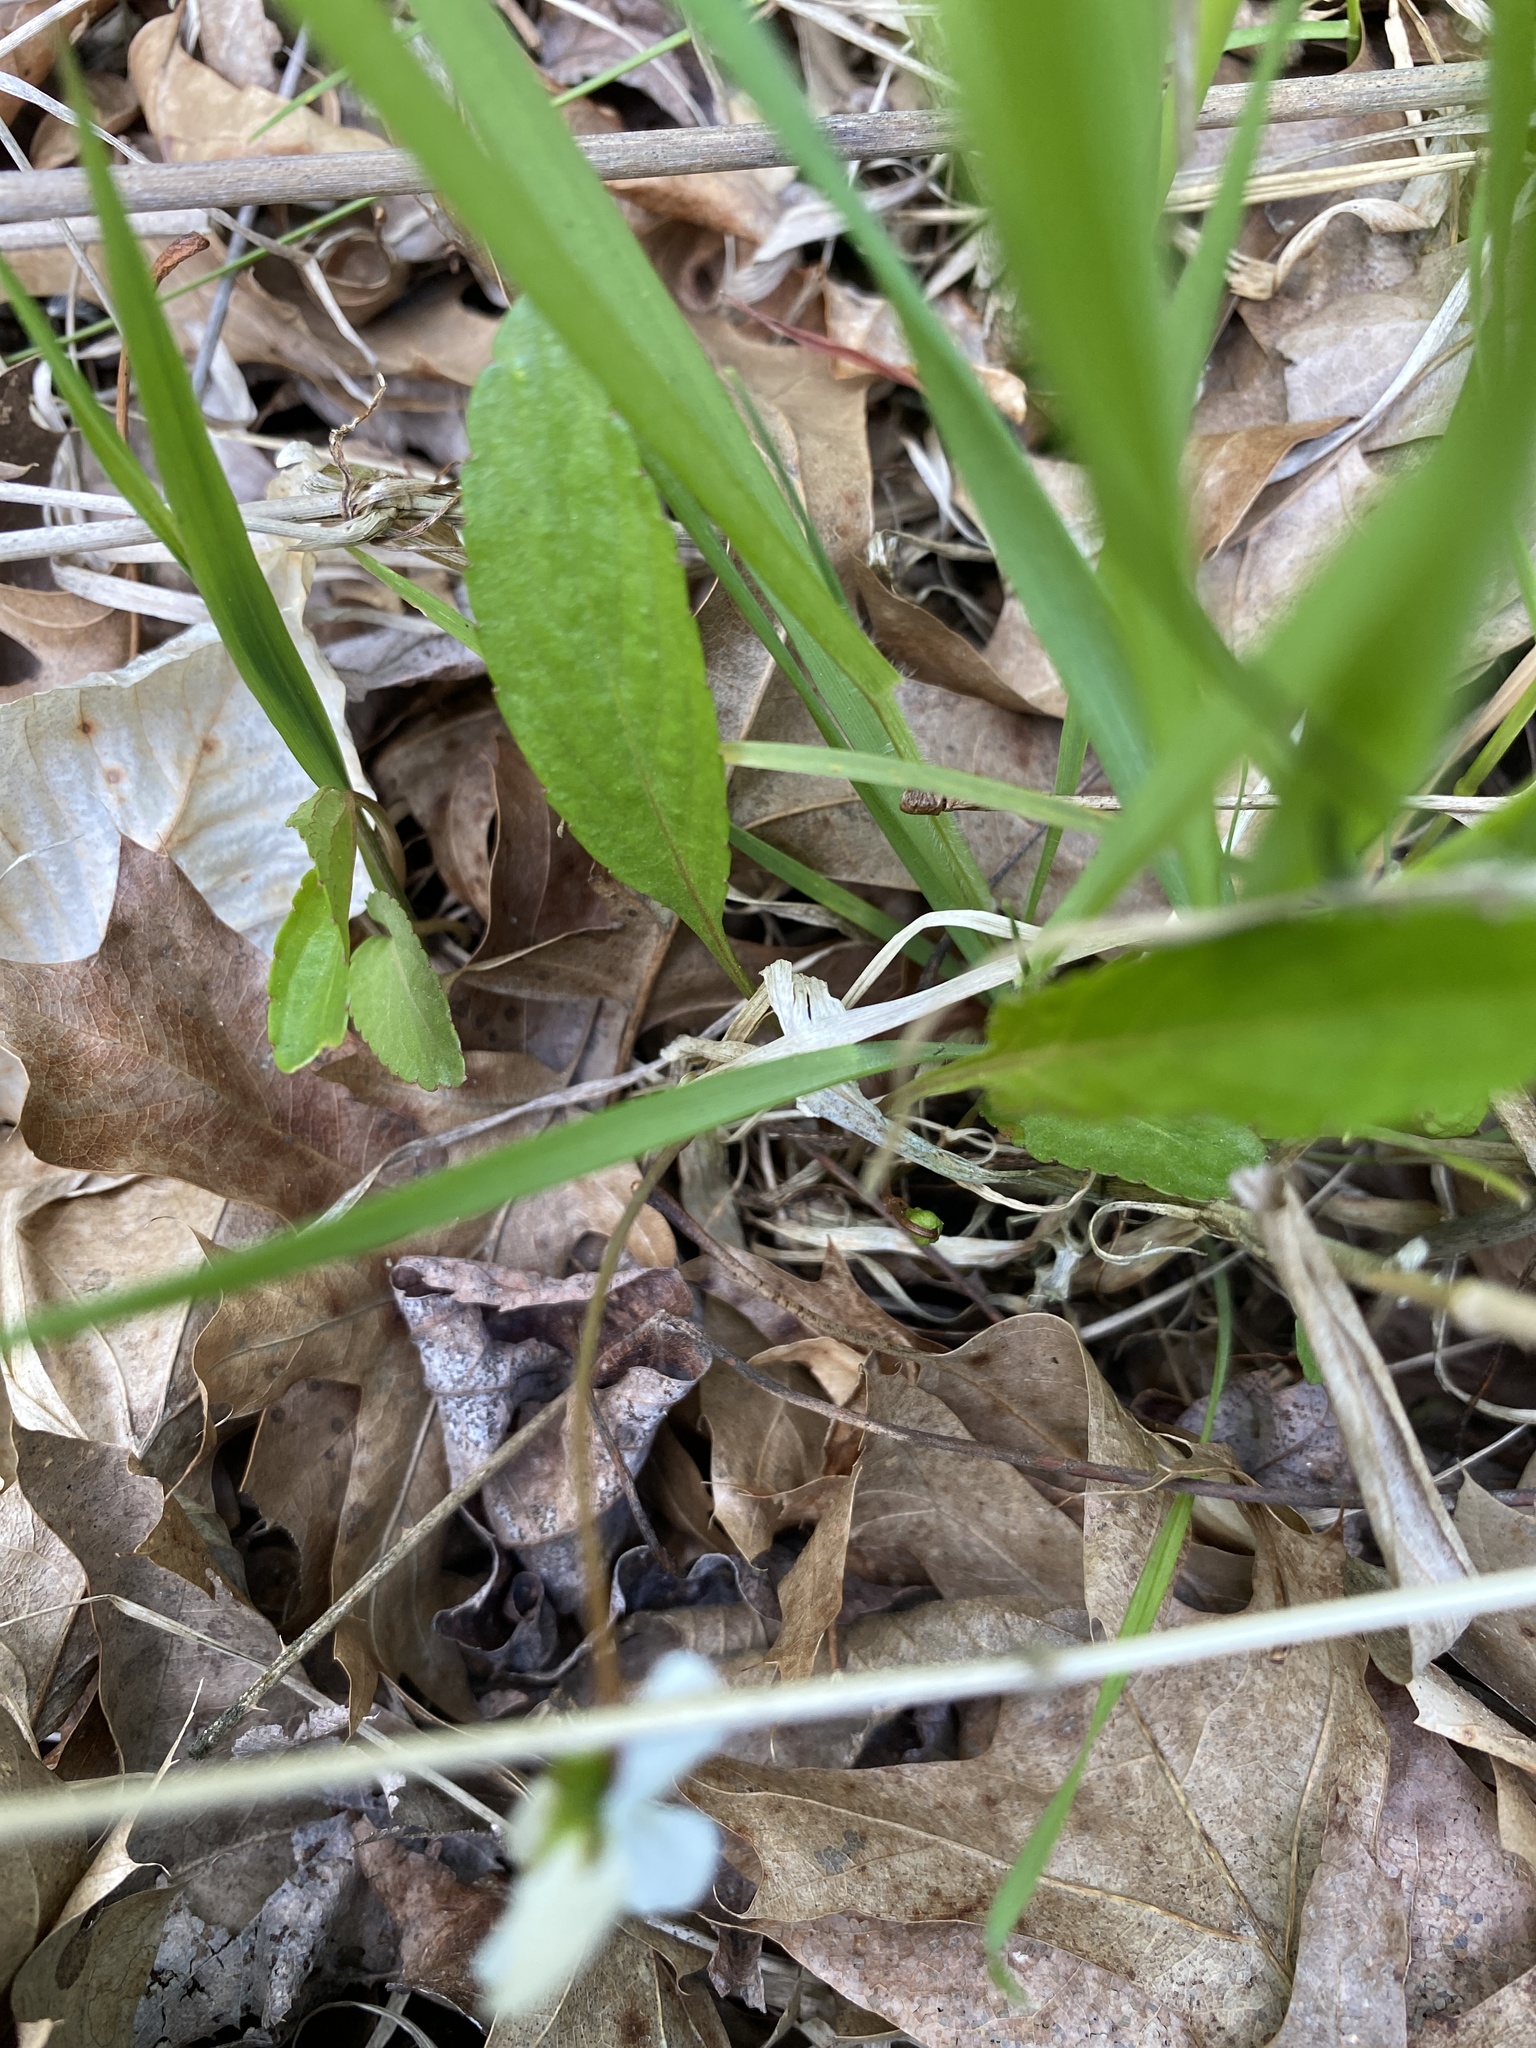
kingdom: Plantae
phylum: Tracheophyta
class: Magnoliopsida
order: Malpighiales
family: Violaceae
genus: Viola
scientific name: Viola lanceolata
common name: Bog white violet
